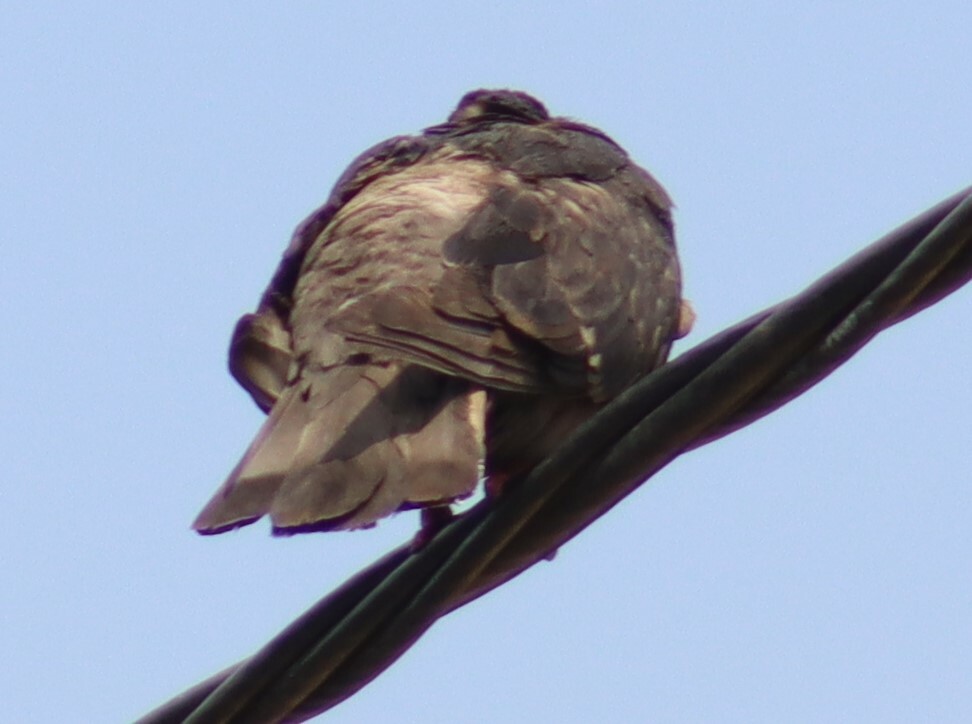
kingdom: Animalia
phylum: Chordata
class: Aves
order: Columbiformes
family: Columbidae
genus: Columba
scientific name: Columba livia
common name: Rock pigeon
